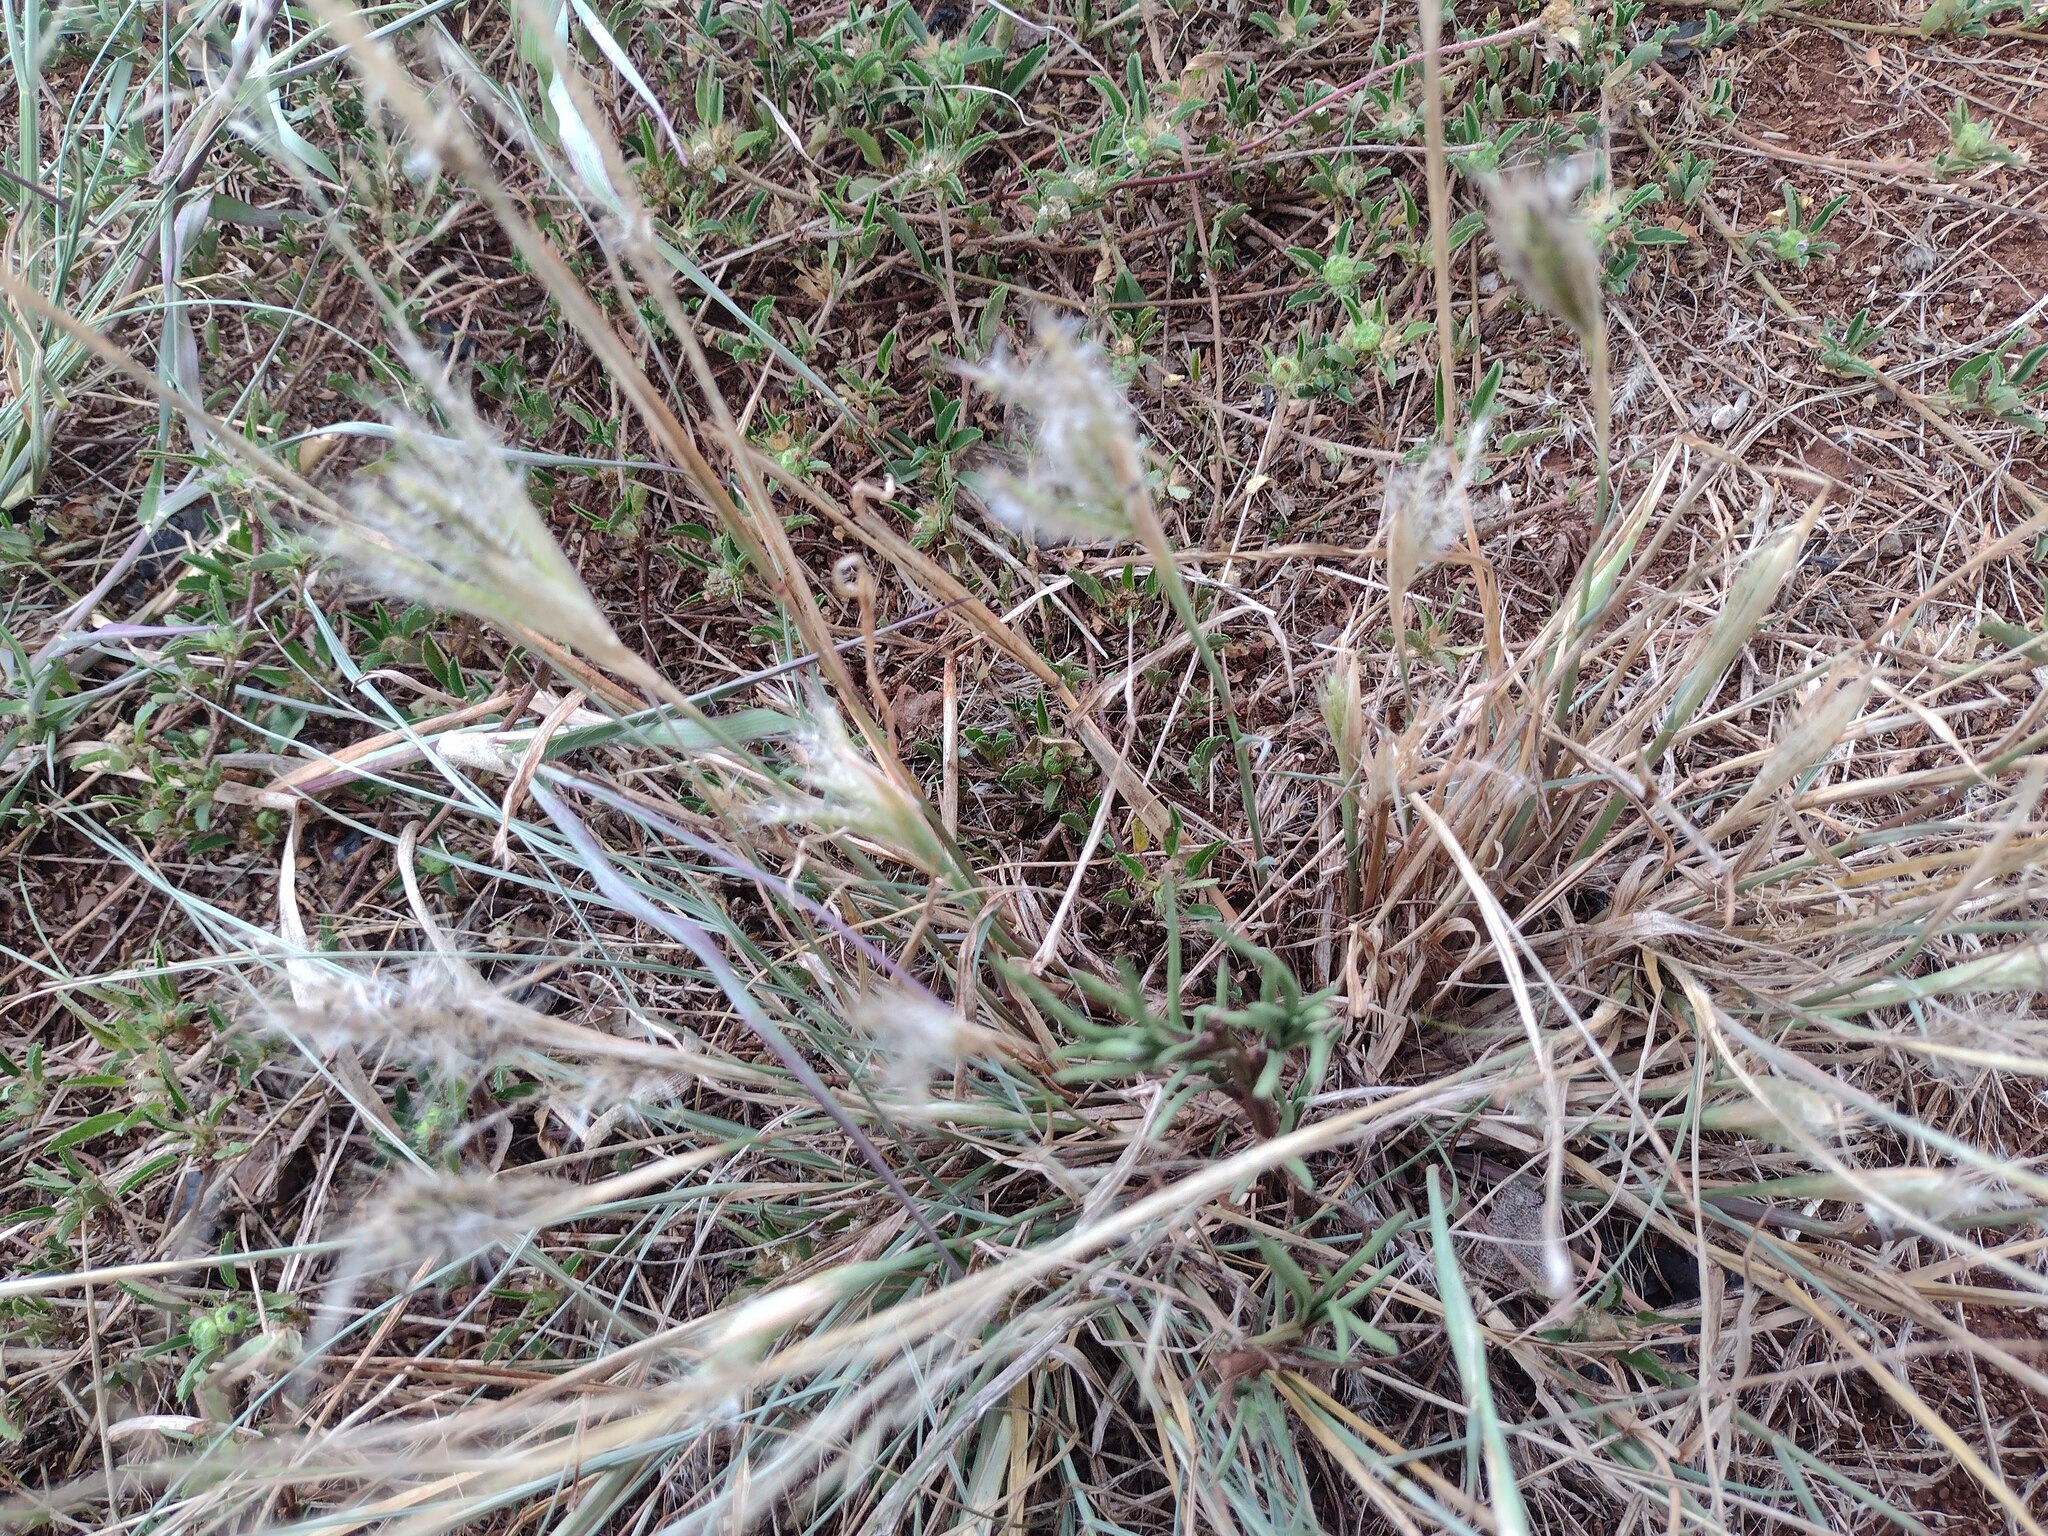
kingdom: Plantae
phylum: Tracheophyta
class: Liliopsida
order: Poales
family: Poaceae
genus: Chloris
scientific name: Chloris virgata
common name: Feathery rhodes-grass
